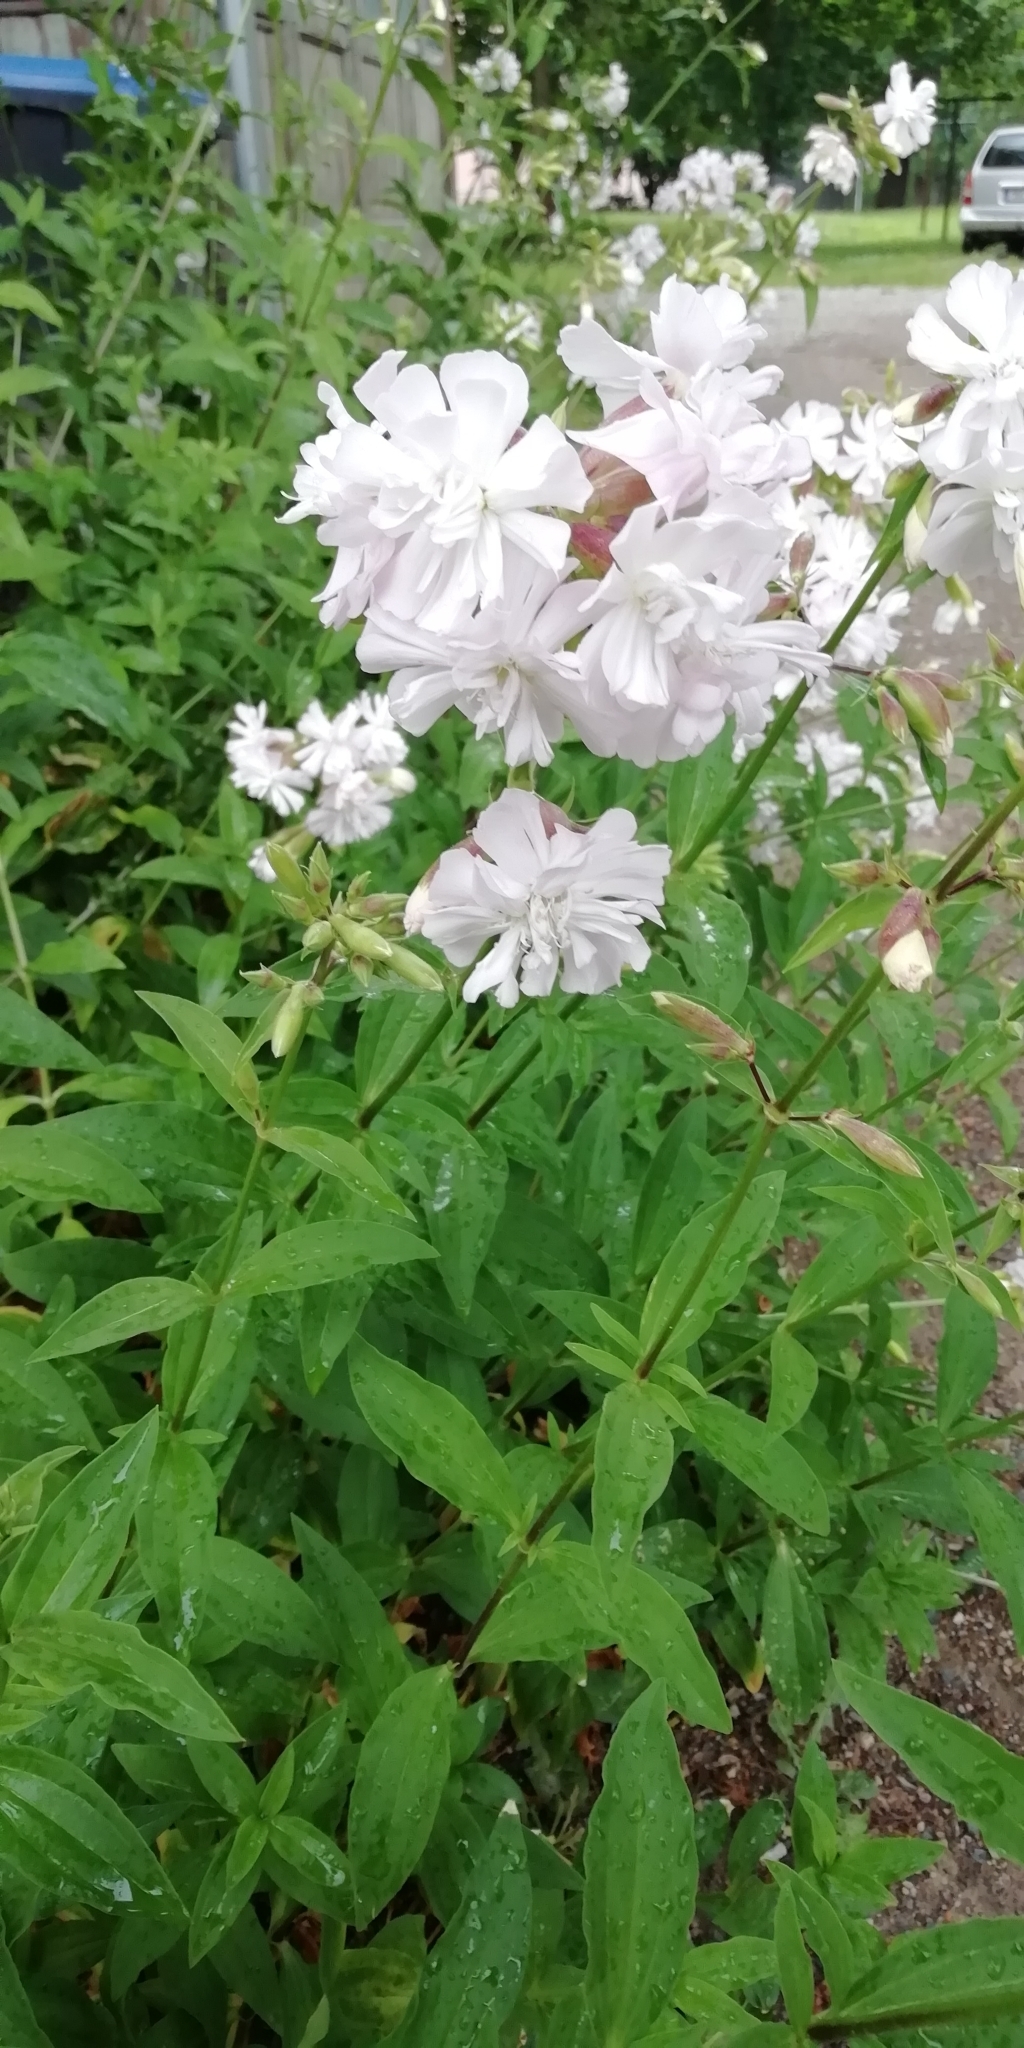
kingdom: Plantae
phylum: Tracheophyta
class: Magnoliopsida
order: Caryophyllales
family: Caryophyllaceae
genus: Saponaria
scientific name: Saponaria officinalis
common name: Soapwort
